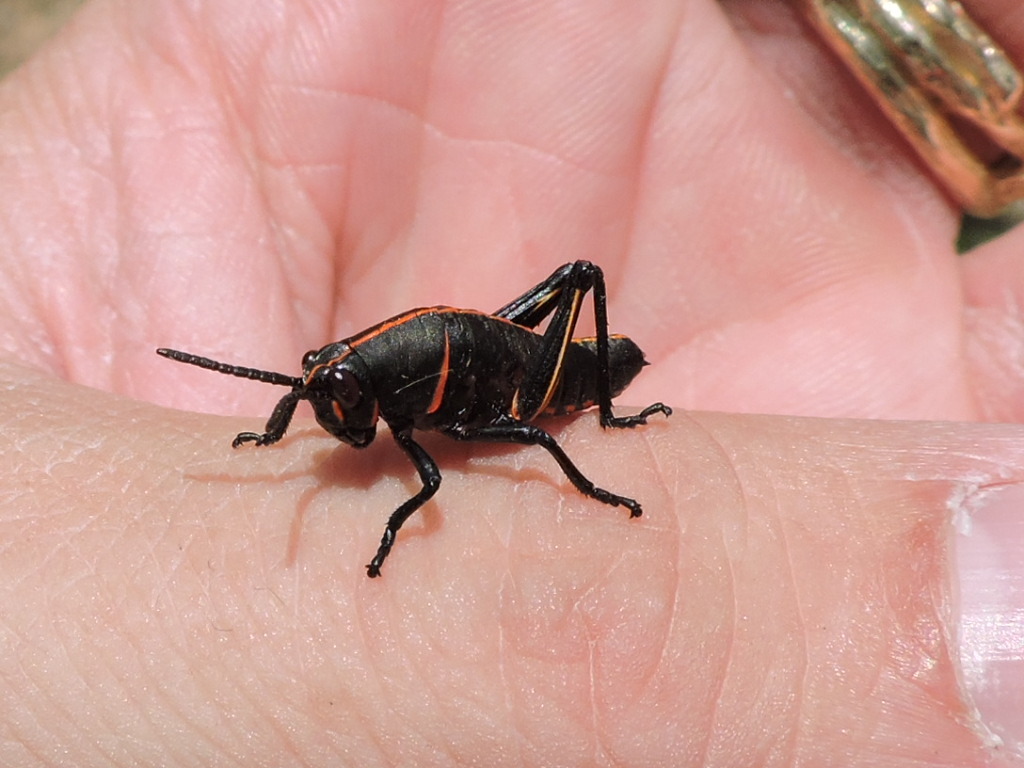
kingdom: Animalia
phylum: Arthropoda
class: Insecta
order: Orthoptera
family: Romaleidae
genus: Romalea
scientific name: Romalea microptera
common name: Eastern lubber grasshopper
